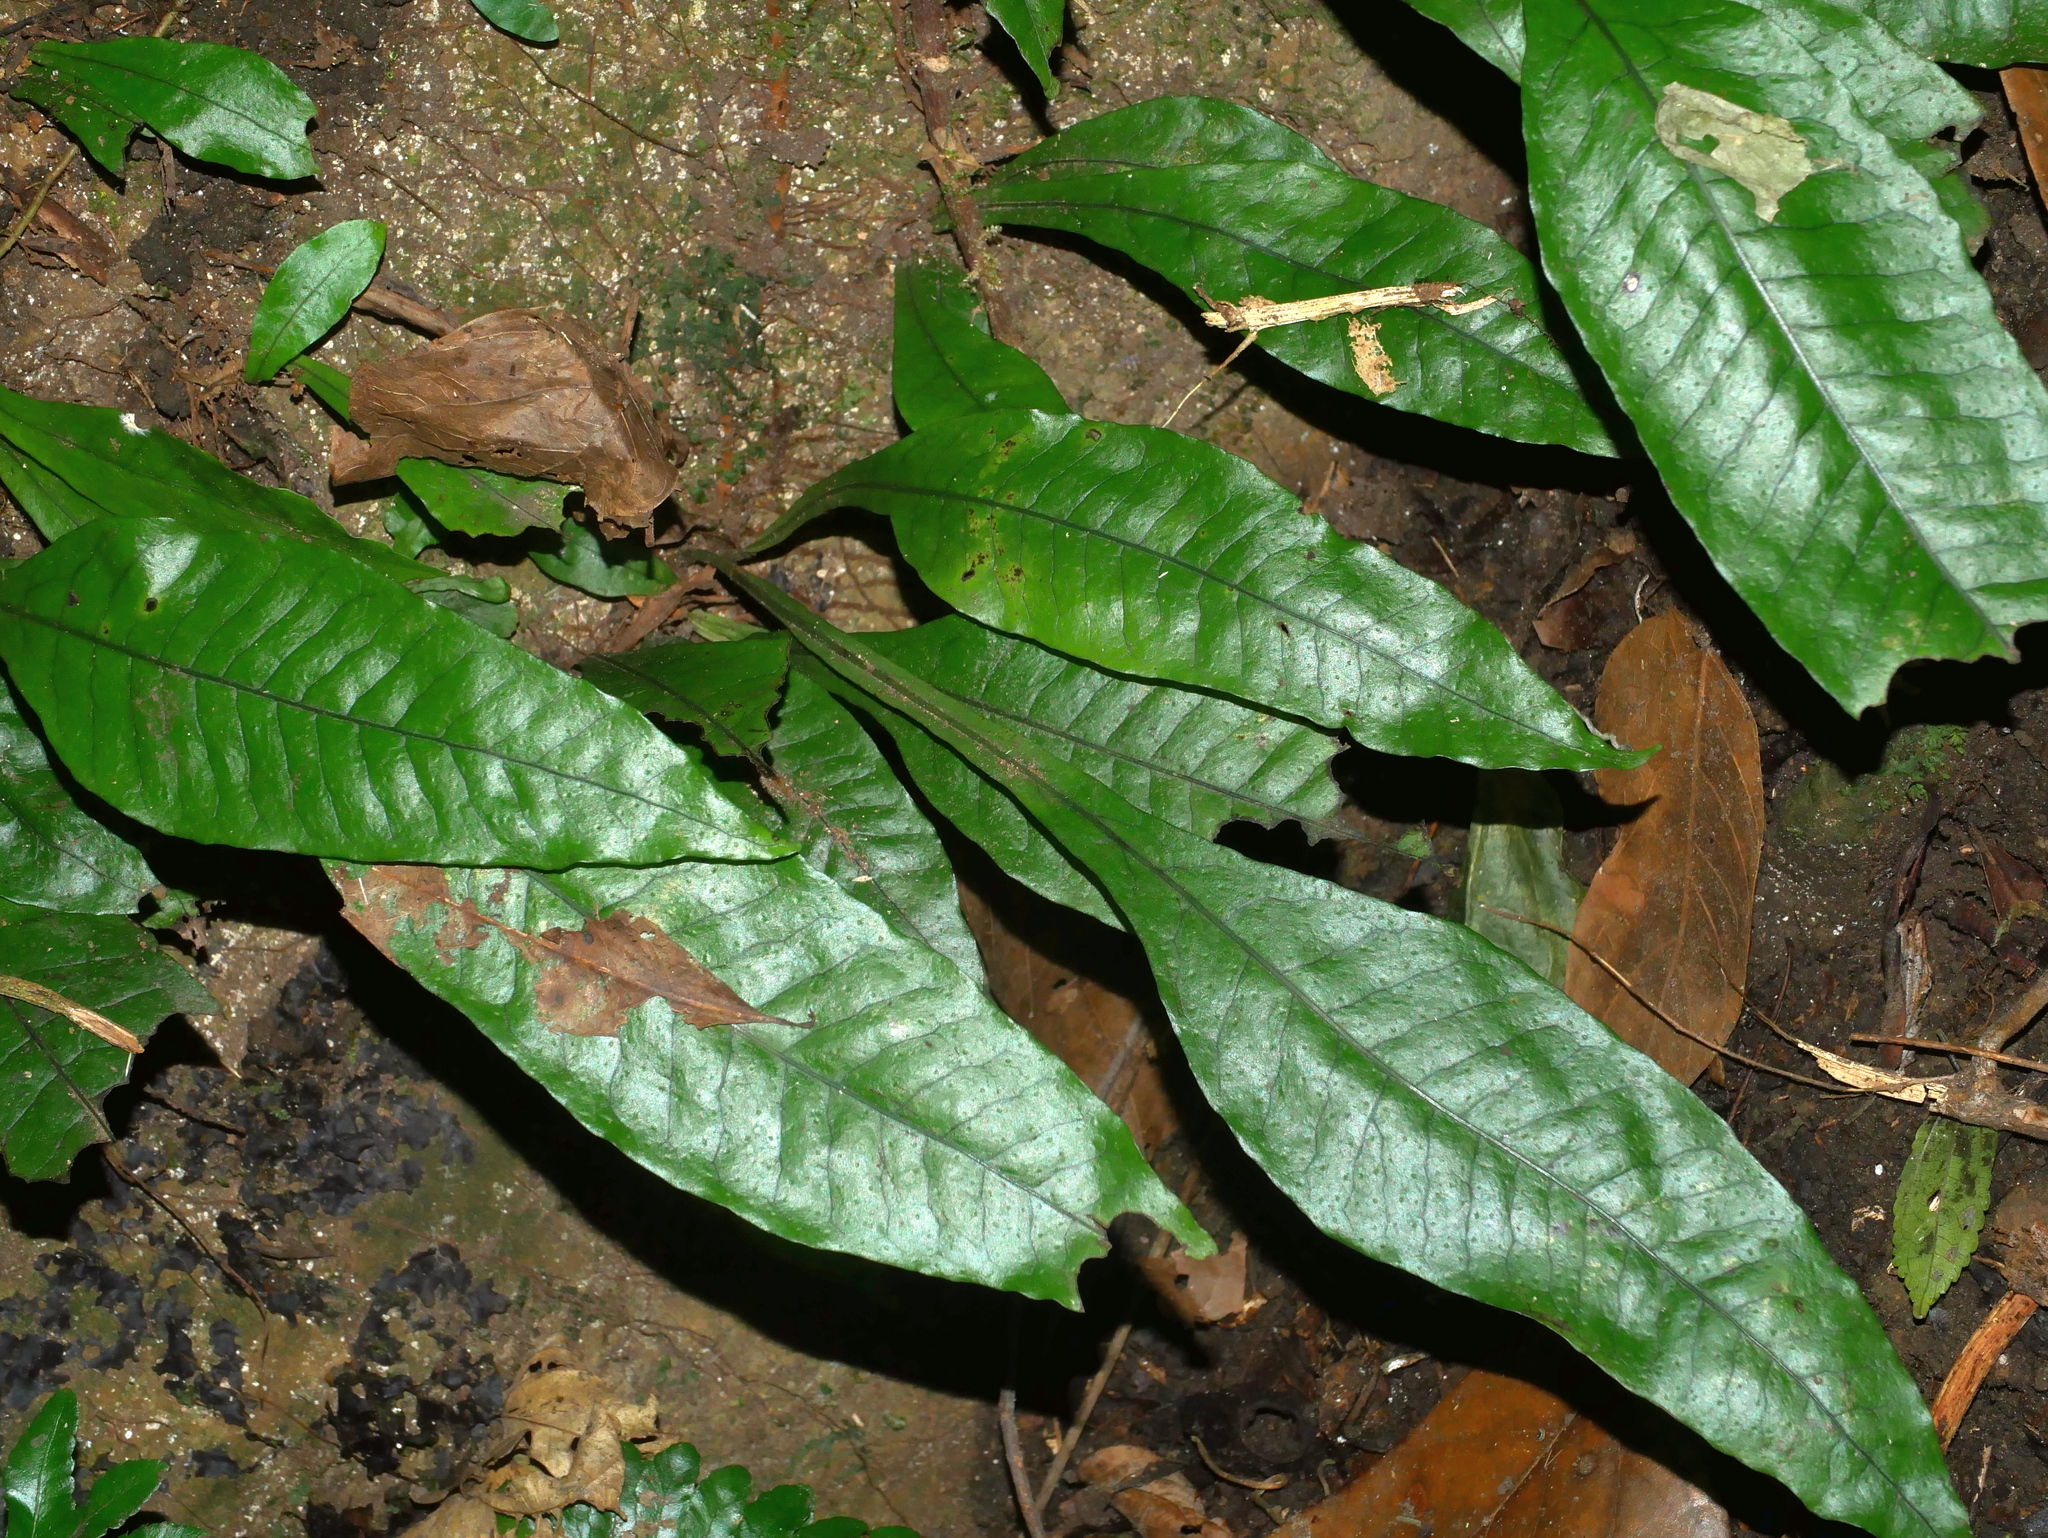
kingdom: Plantae
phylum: Tracheophyta
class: Polypodiopsida
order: Polypodiales
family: Polypodiaceae
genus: Leptochilus
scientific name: Leptochilus decurrens
